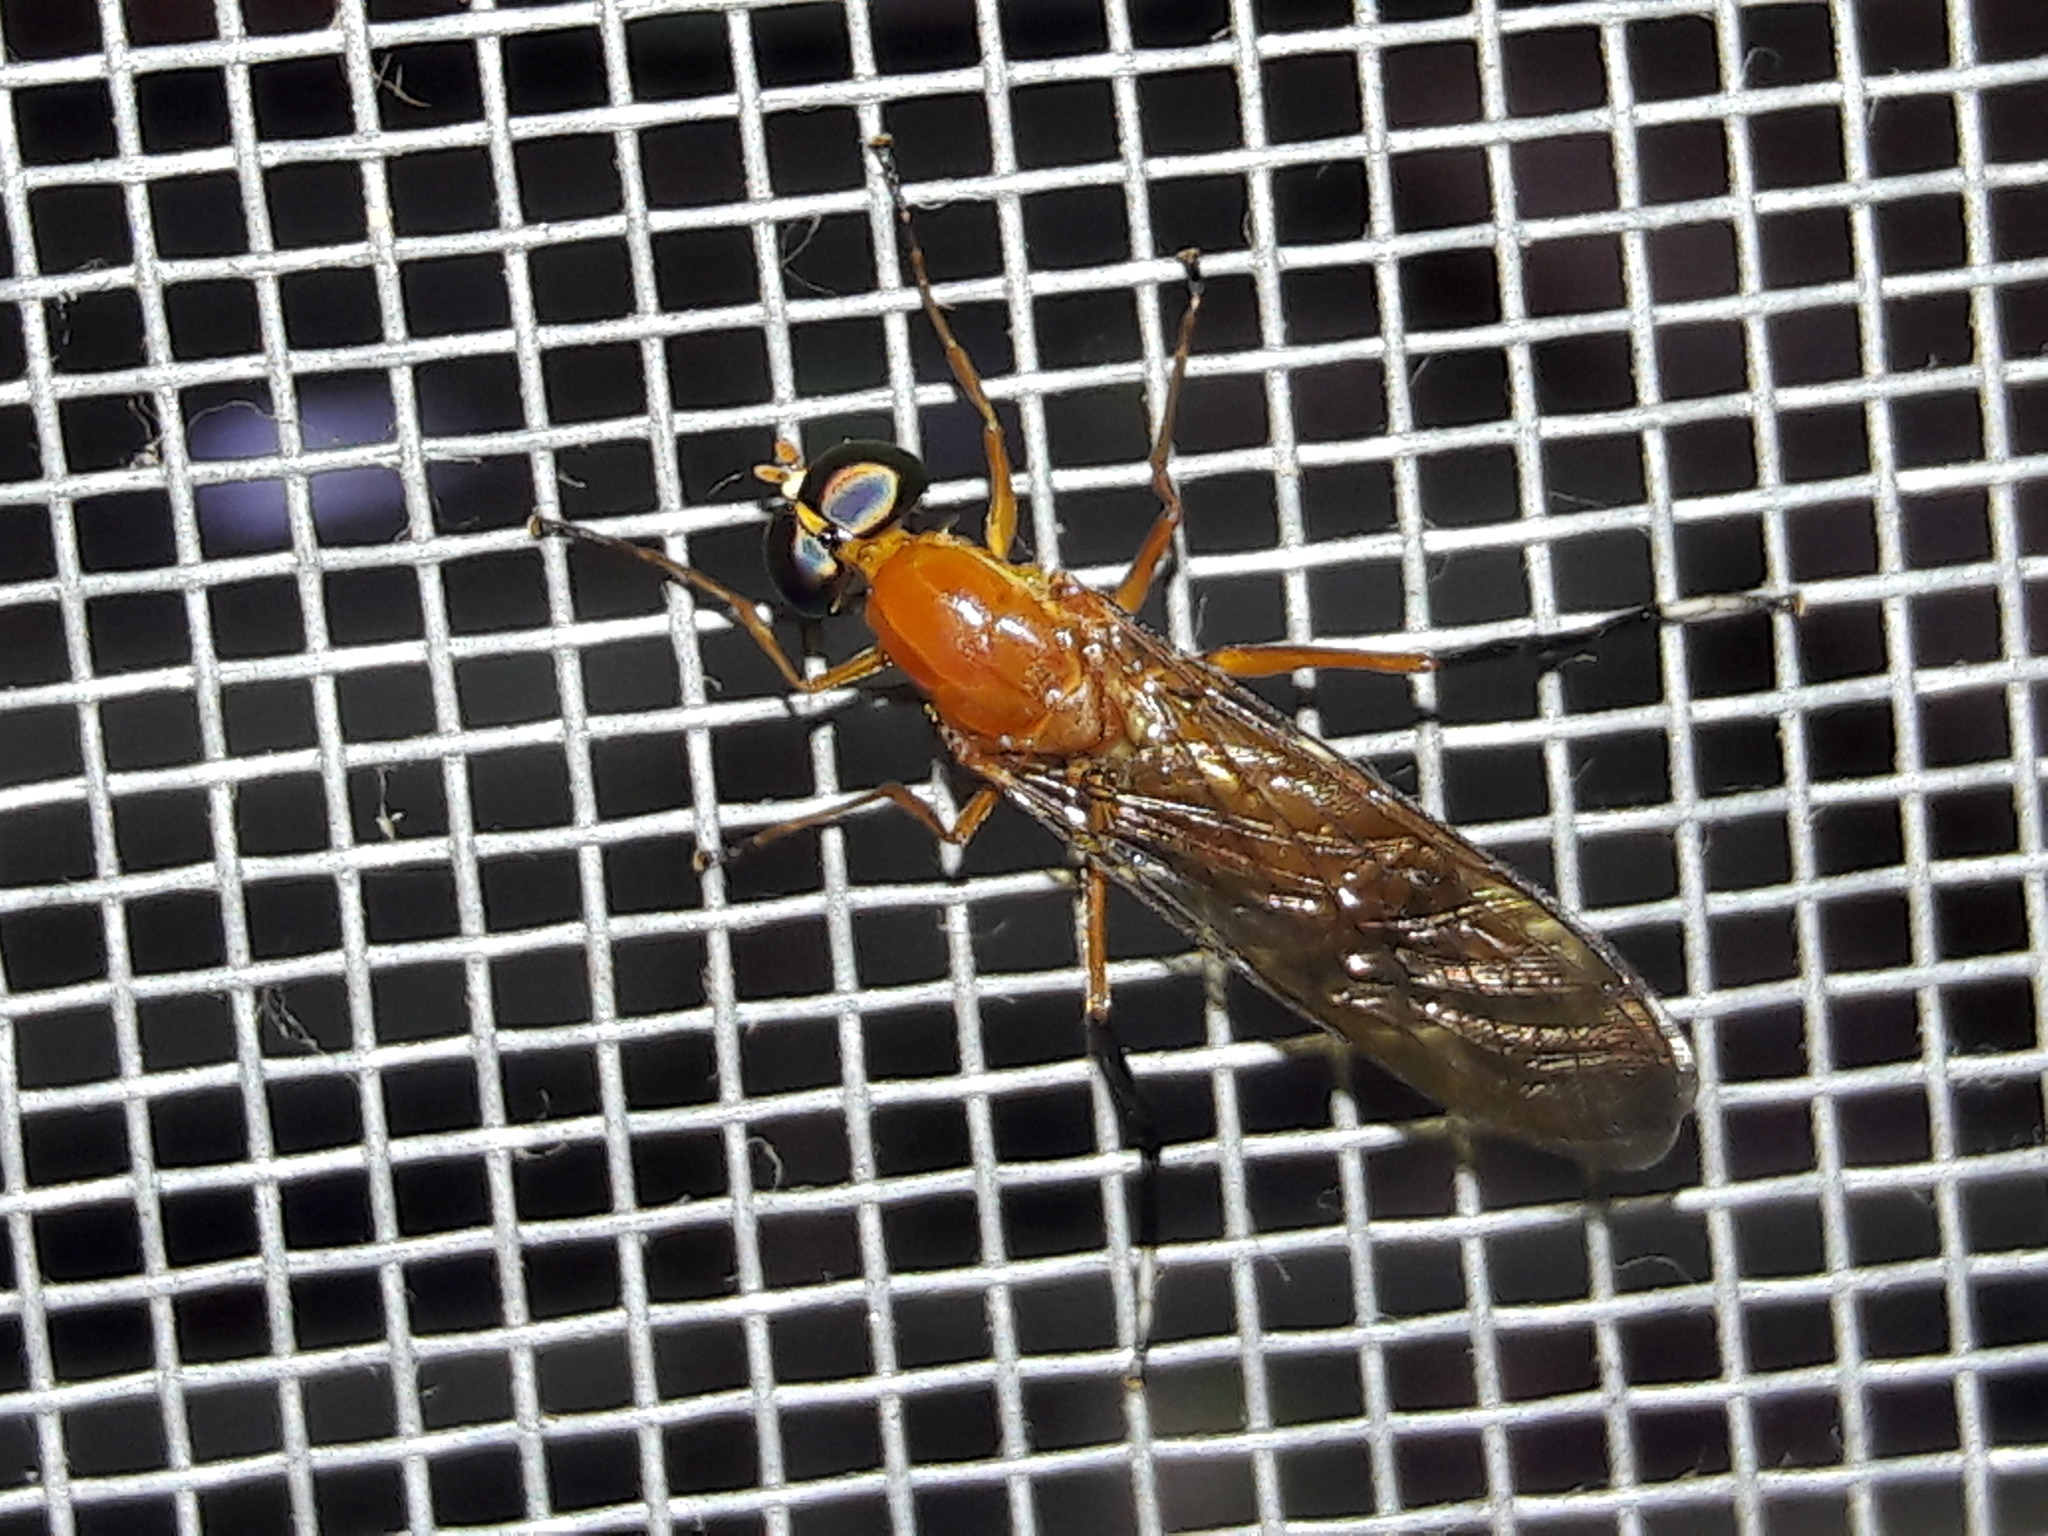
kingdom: Animalia
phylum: Arthropoda
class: Insecta
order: Diptera
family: Stratiomyidae
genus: Ptecticus
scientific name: Ptecticus testaceus
